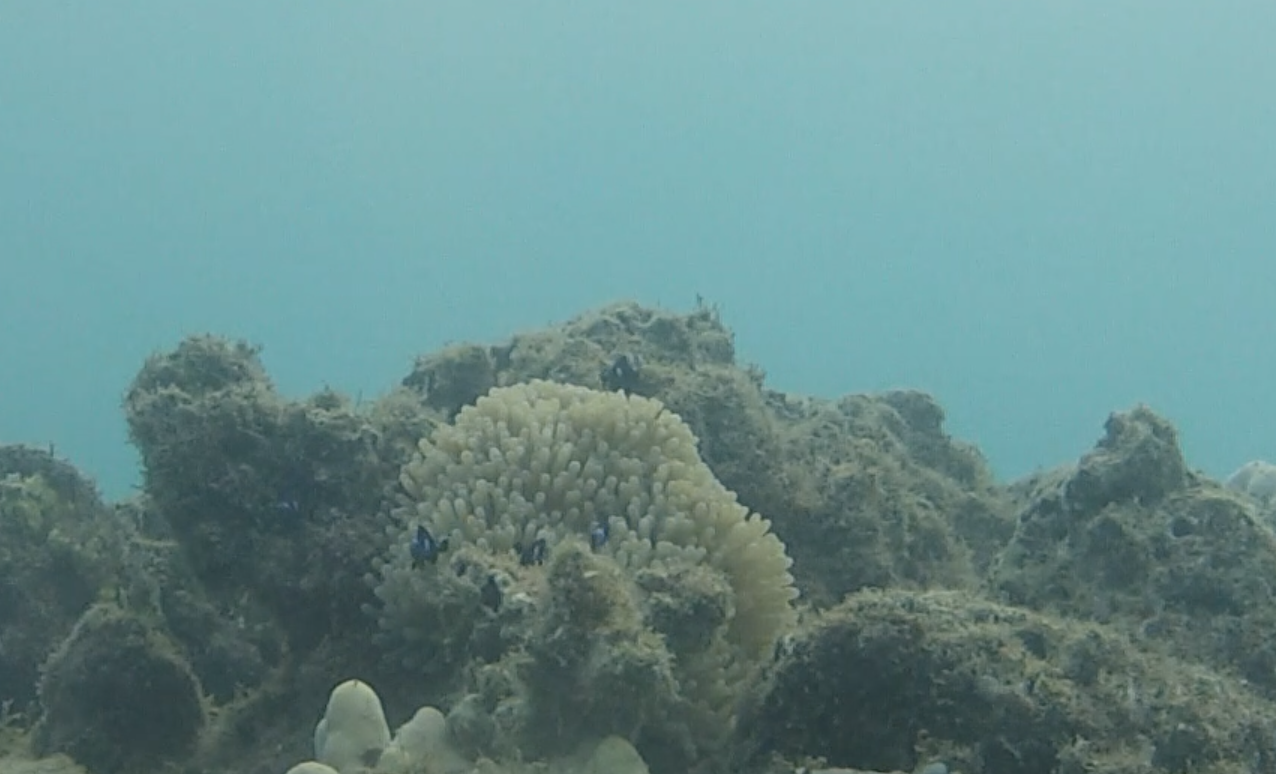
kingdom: Animalia
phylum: Cnidaria
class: Anthozoa
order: Actiniaria
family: Stichodactylidae
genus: Radianthus
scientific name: Radianthus magnifica
